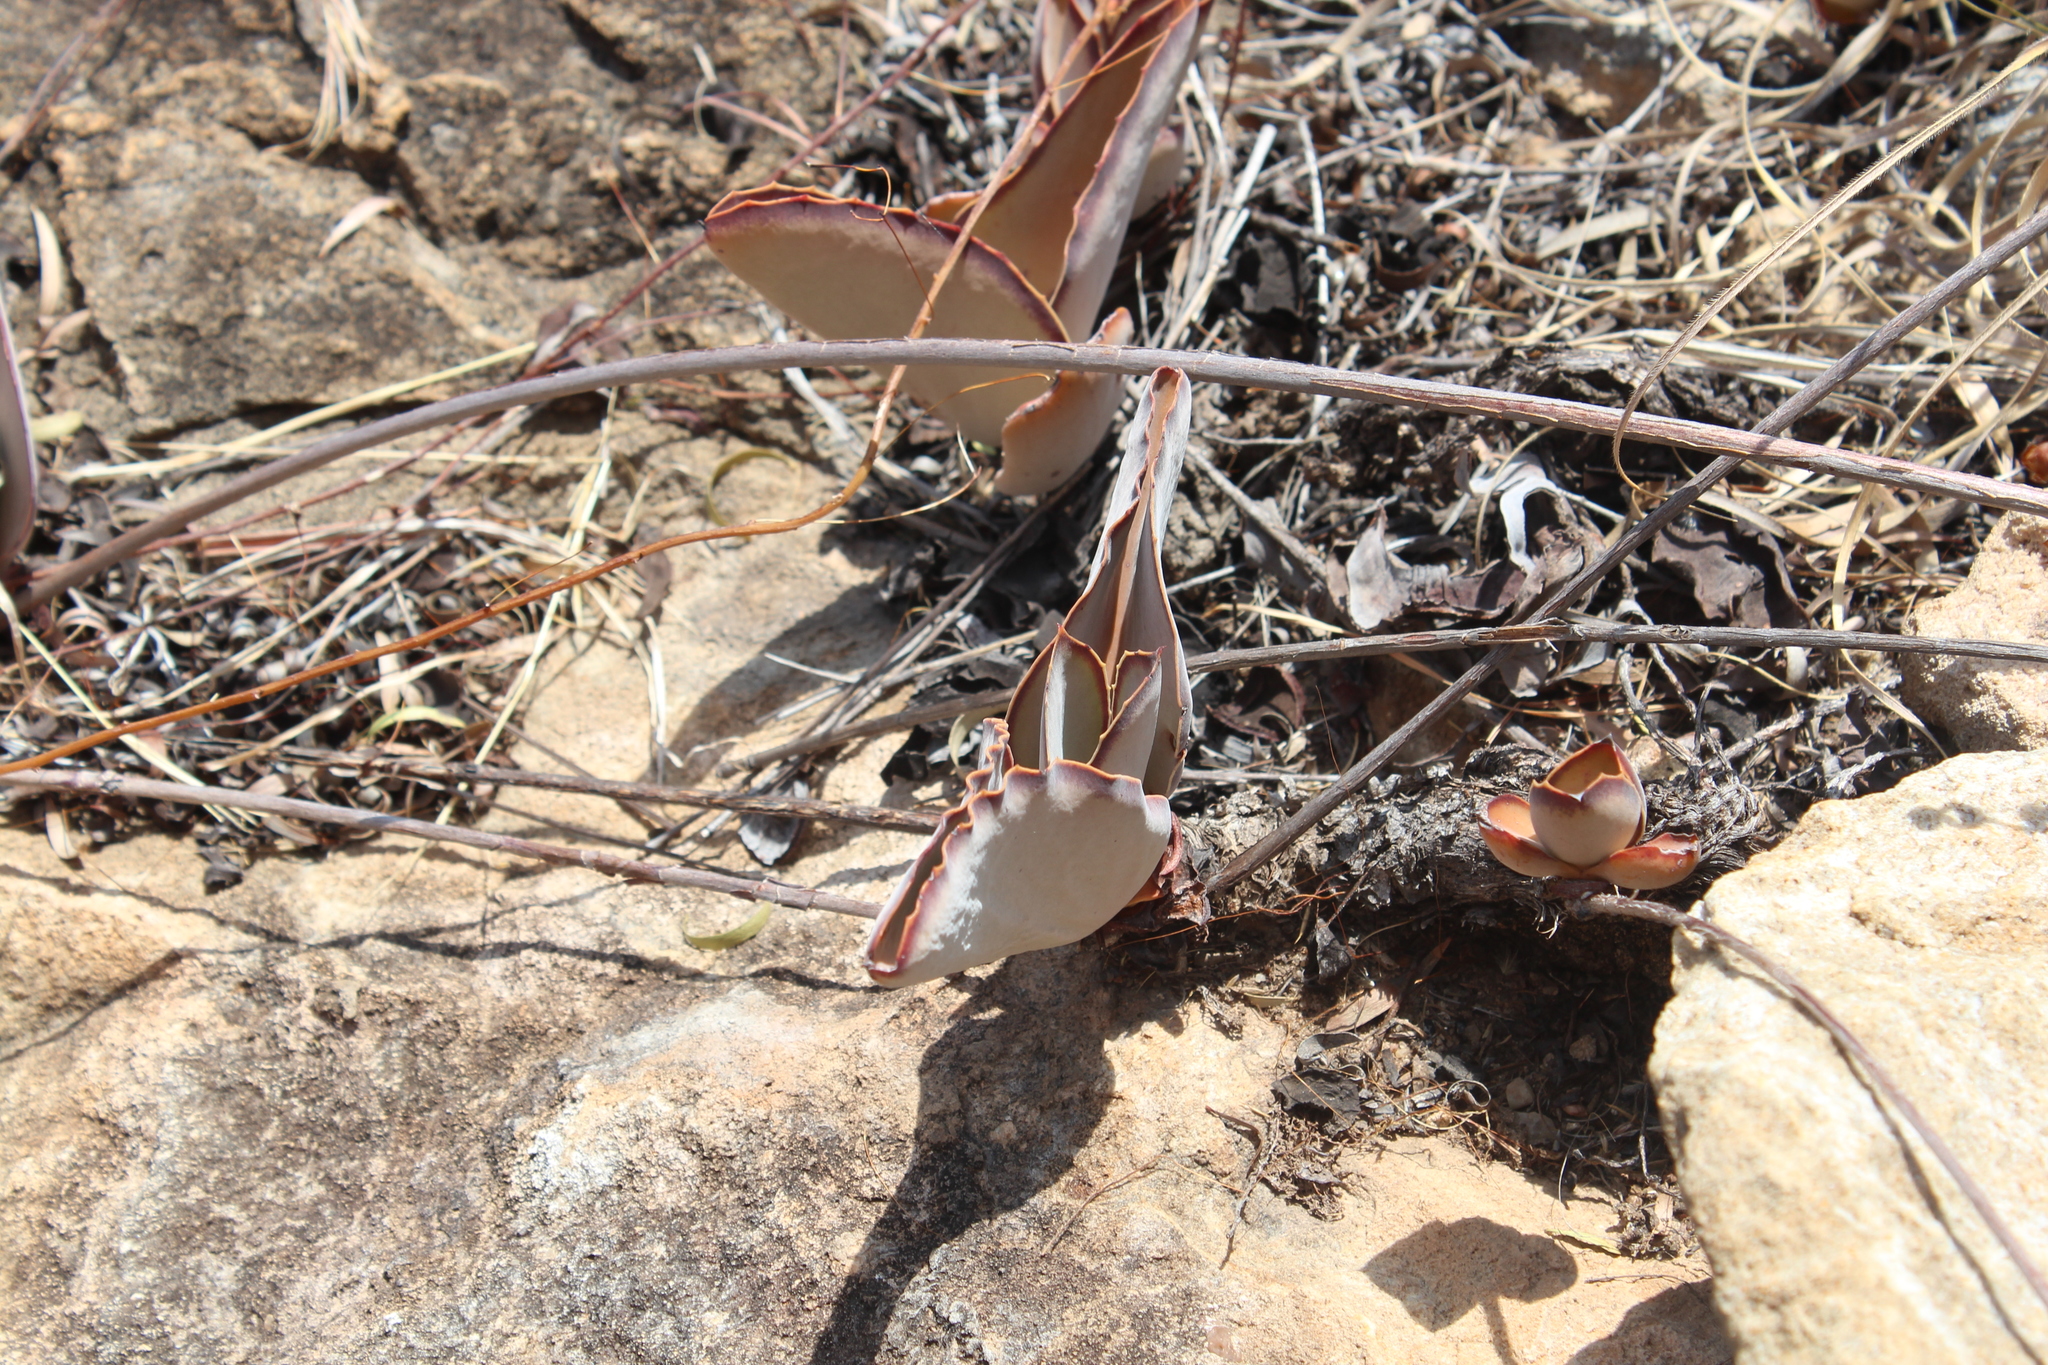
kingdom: Plantae
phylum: Tracheophyta
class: Magnoliopsida
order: Saxifragales
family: Crassulaceae
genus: Kalanchoe
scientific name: Kalanchoe synsepala
